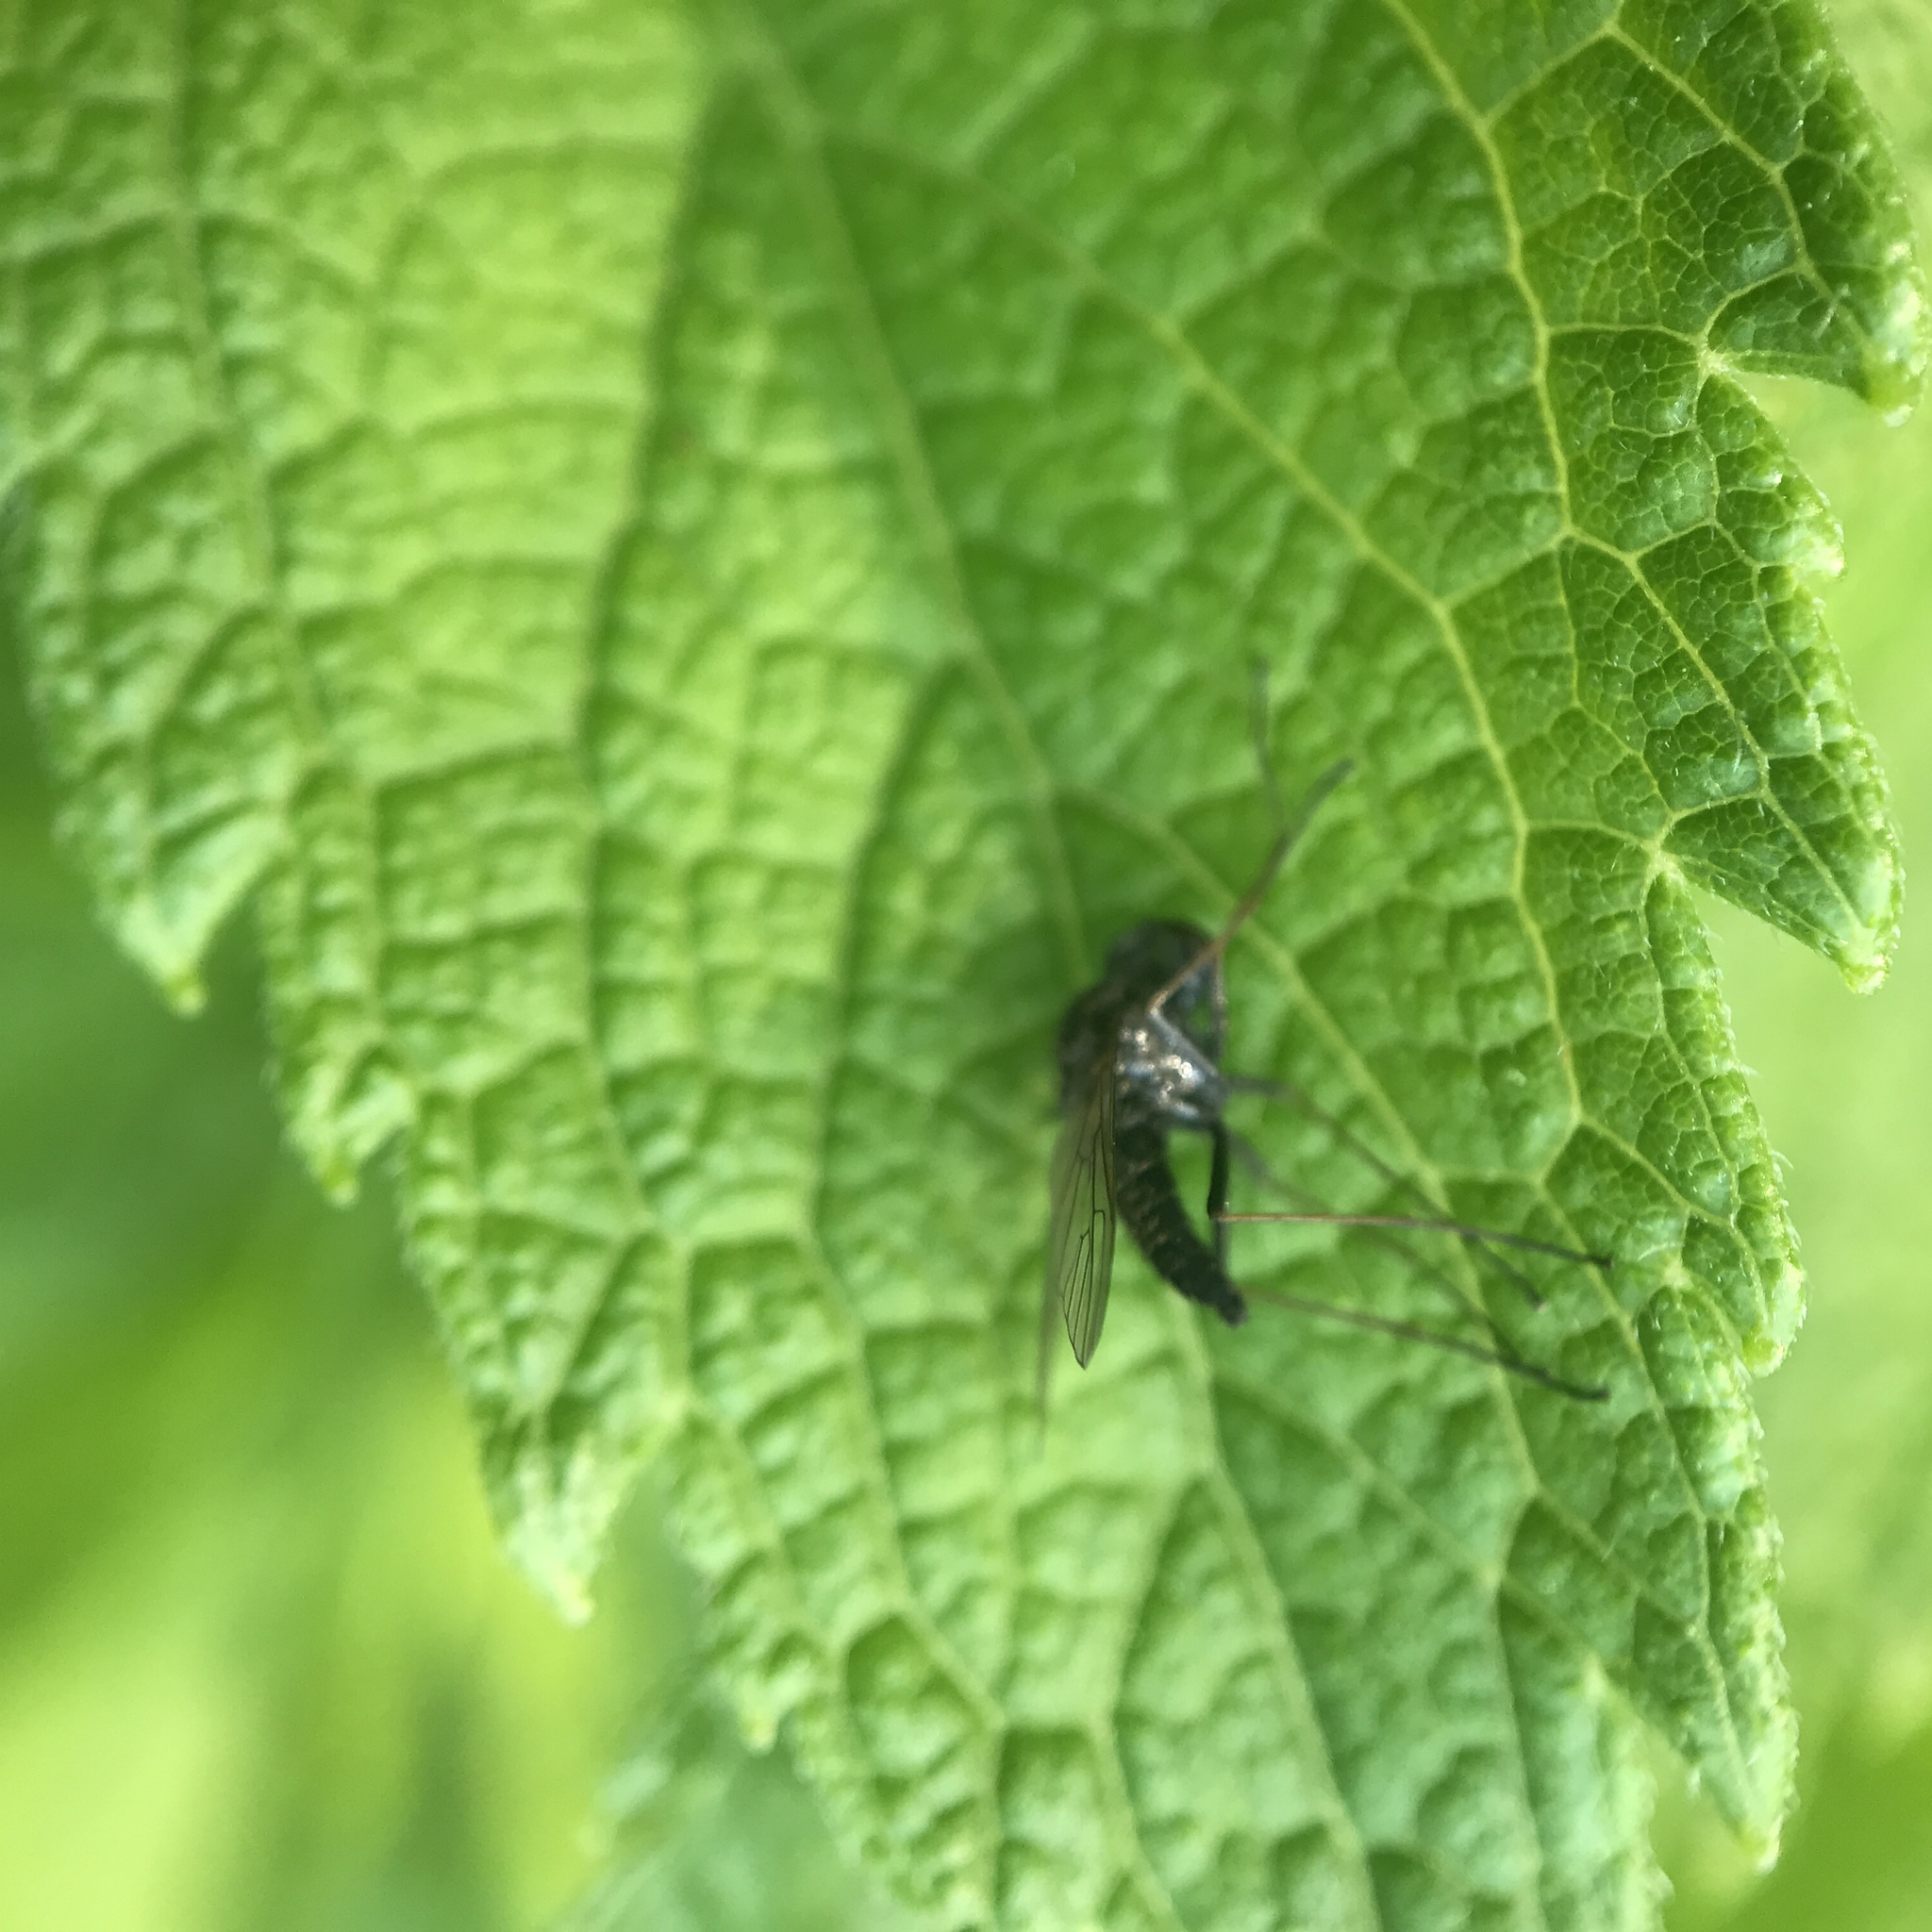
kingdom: Animalia
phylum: Arthropoda
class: Insecta
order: Diptera
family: Rhagionidae
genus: Chrysopilus
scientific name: Chrysopilus proximus
